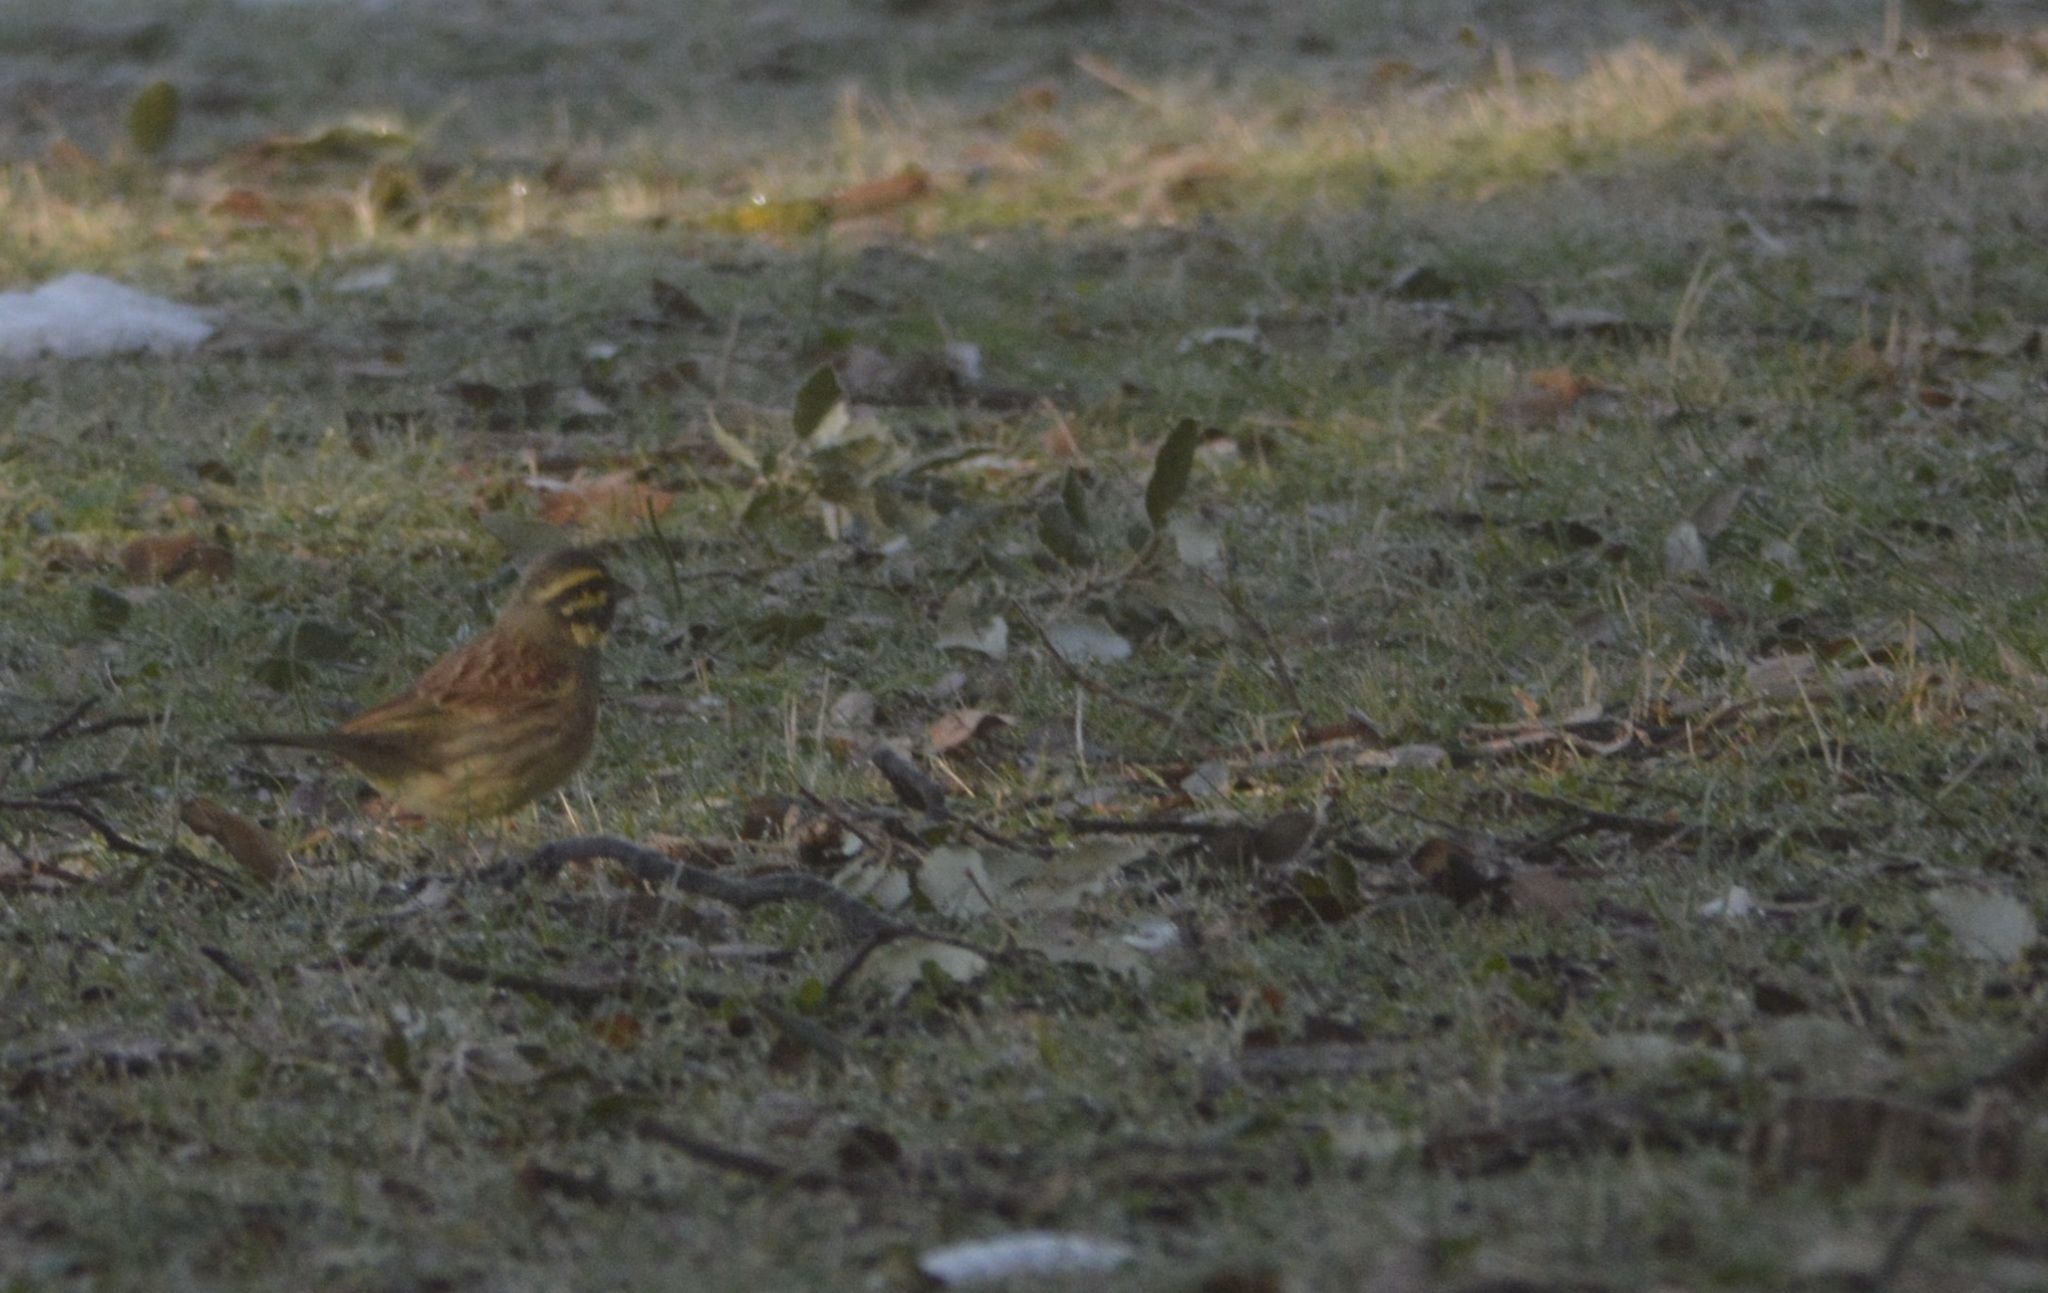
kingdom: Animalia
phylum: Chordata
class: Aves
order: Passeriformes
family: Emberizidae
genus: Emberiza
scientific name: Emberiza cirlus
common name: Cirl bunting
